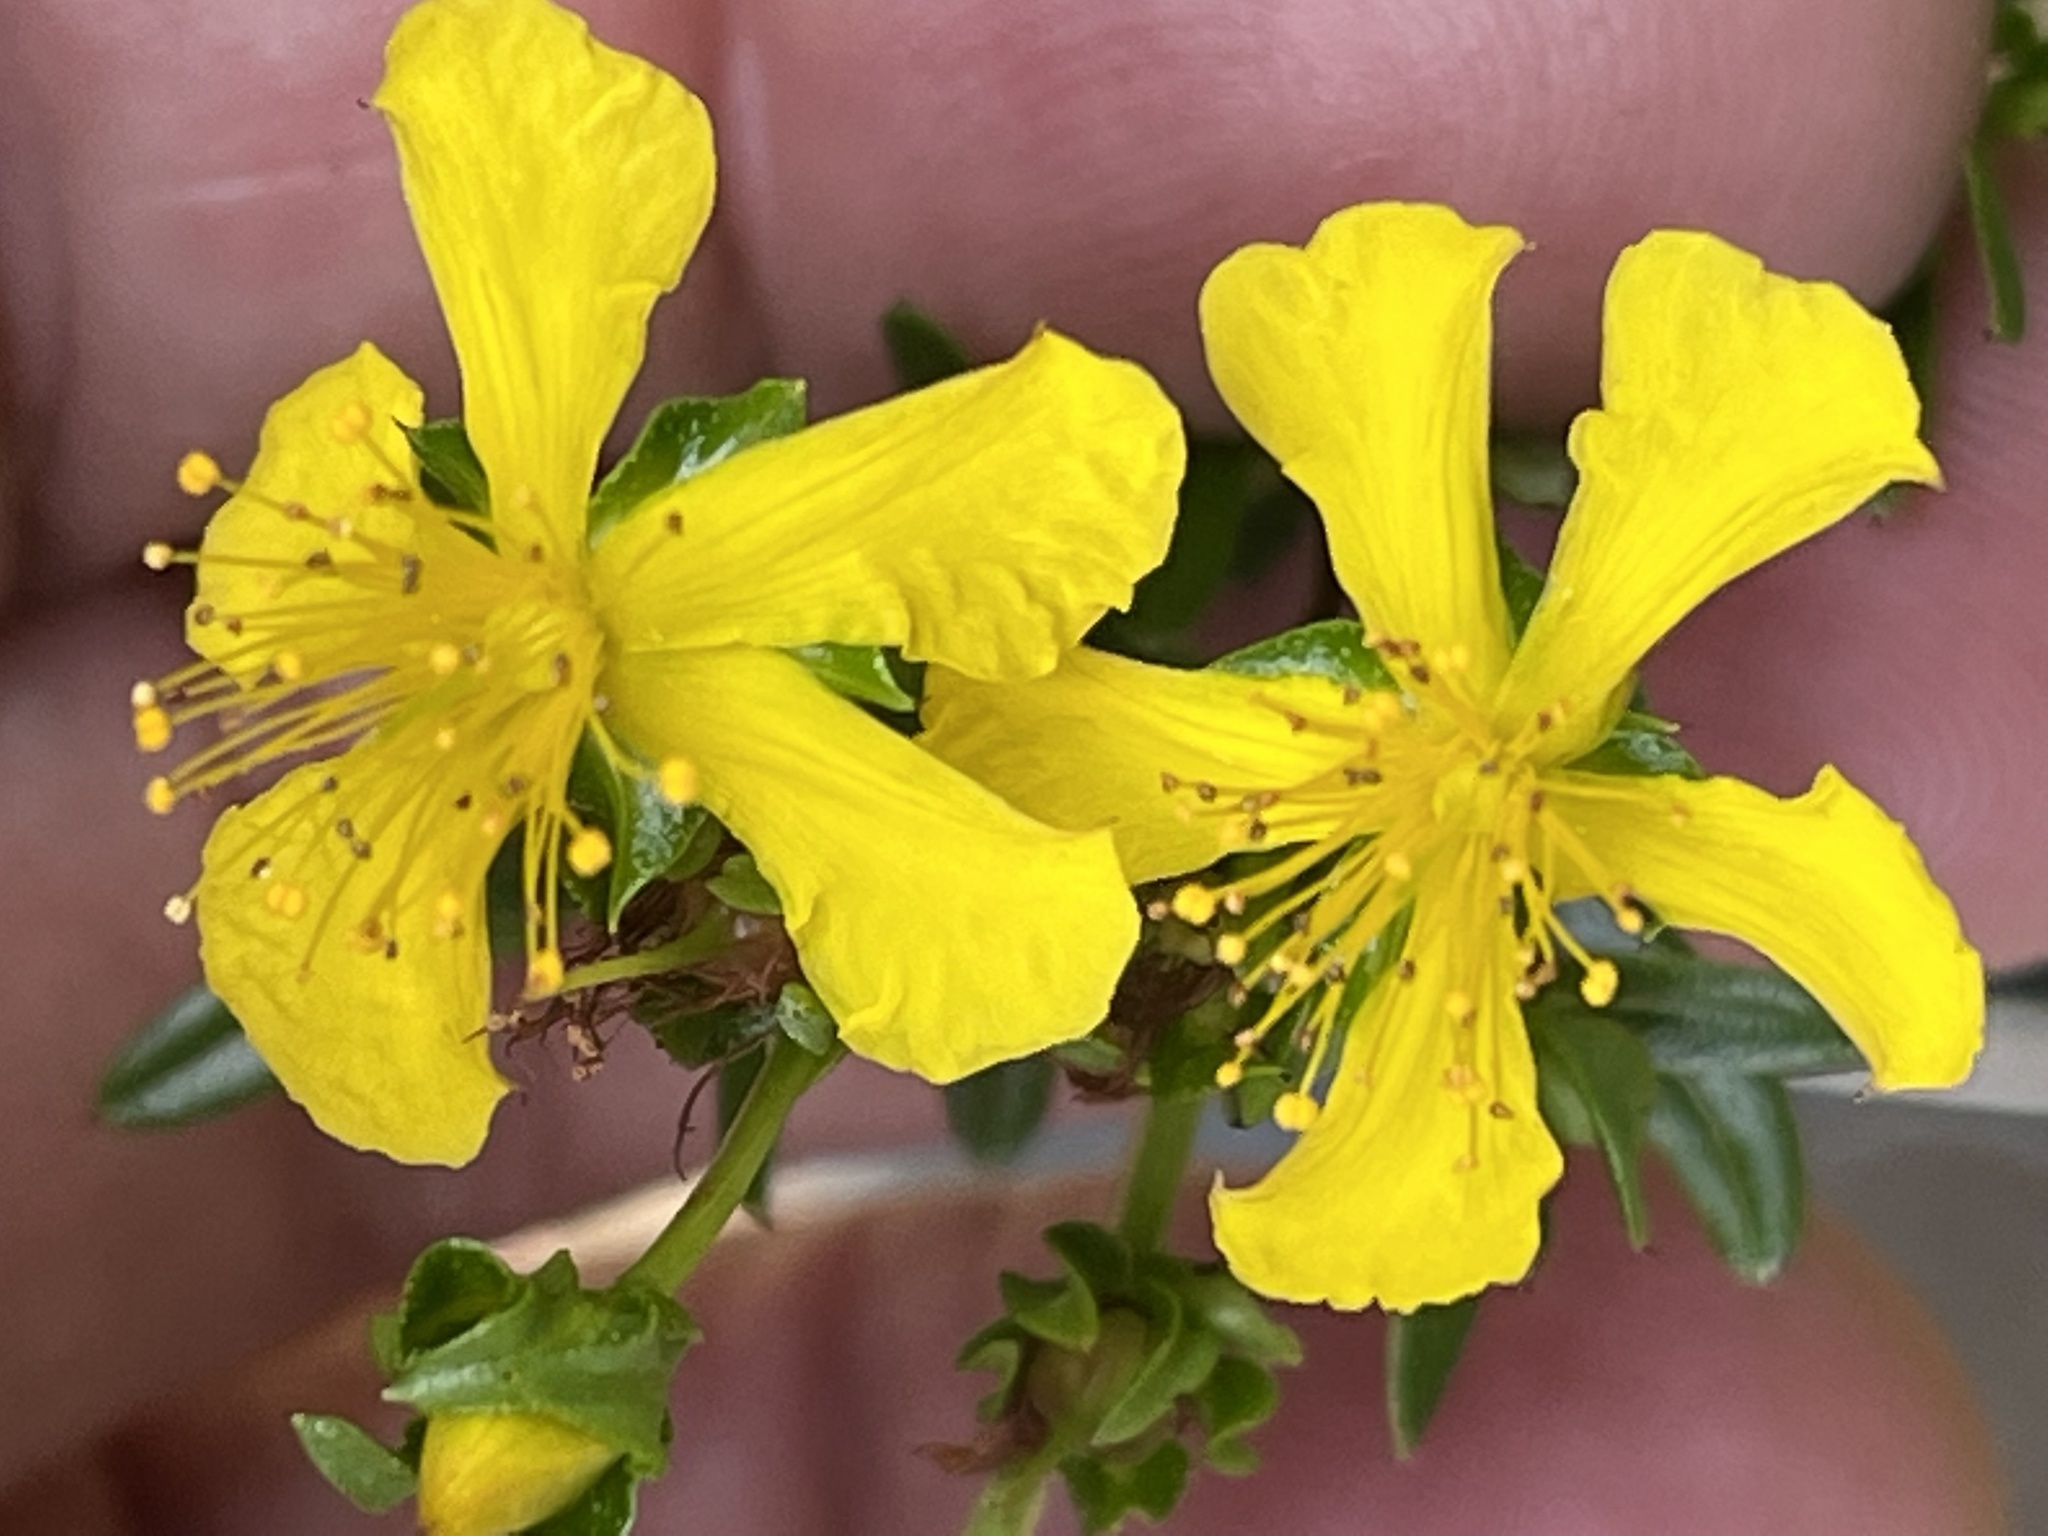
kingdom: Plantae
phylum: Tracheophyta
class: Magnoliopsida
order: Malpighiales
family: Hypericaceae
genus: Hypericum
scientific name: Hypericum sphaerocarpum
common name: Round-fruited st. john's-wort
